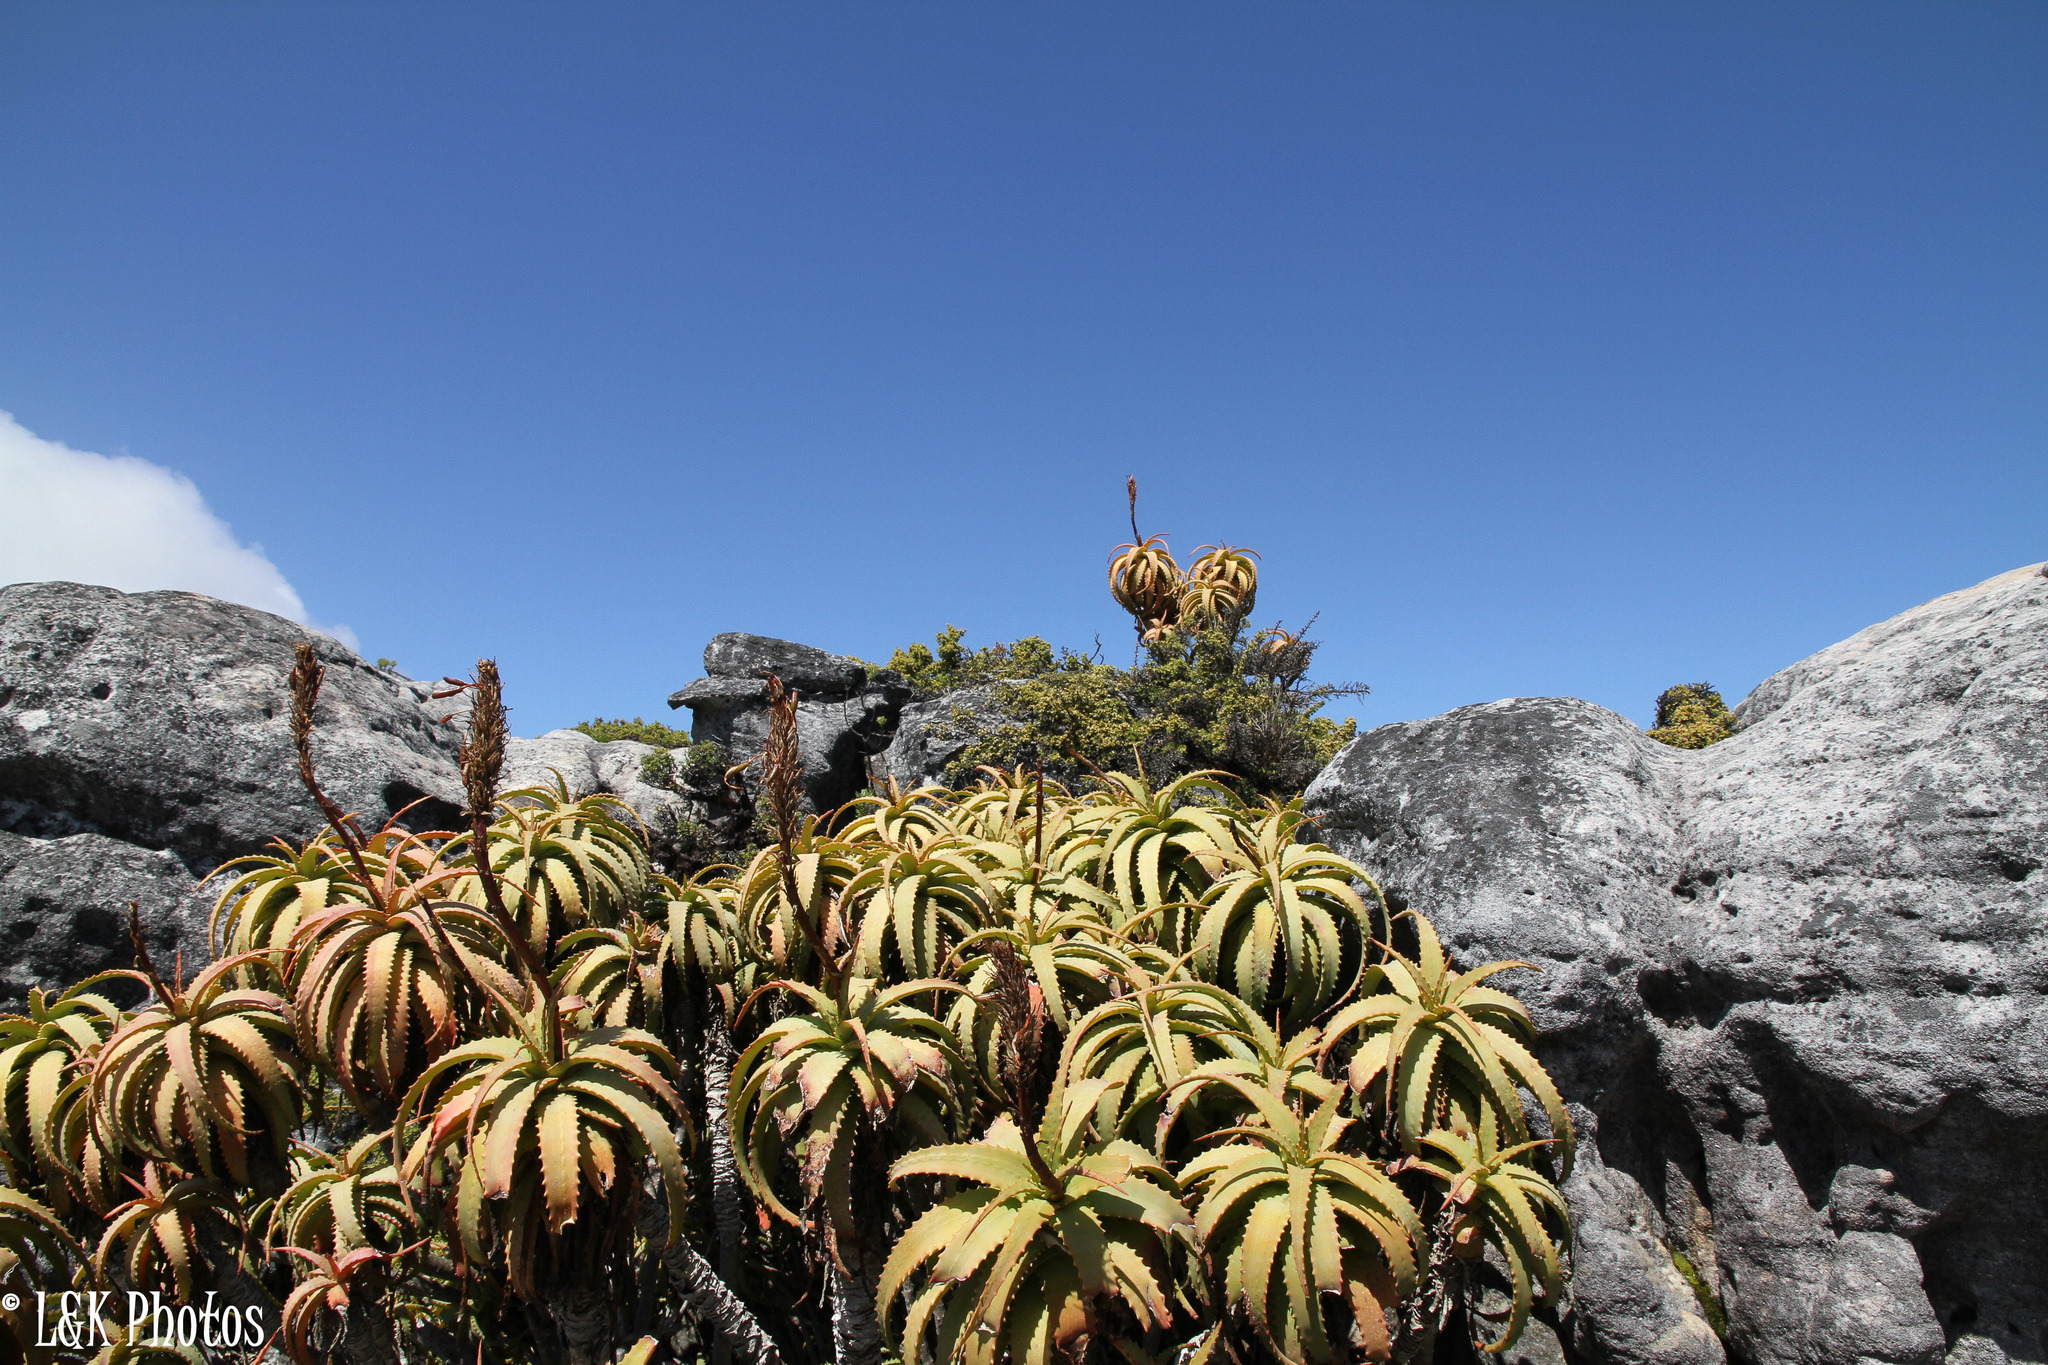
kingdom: Plantae
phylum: Tracheophyta
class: Liliopsida
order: Asparagales
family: Asphodelaceae
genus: Aloe
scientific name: Aloe arborescens
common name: Candelabra aloe
